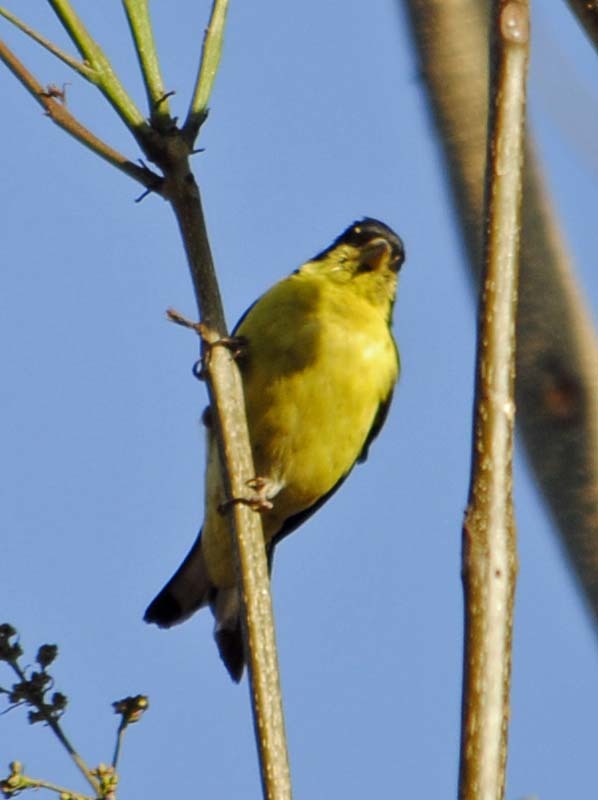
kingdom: Animalia
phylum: Chordata
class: Aves
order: Passeriformes
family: Fringillidae
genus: Spinus
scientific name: Spinus psaltria
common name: Lesser goldfinch
